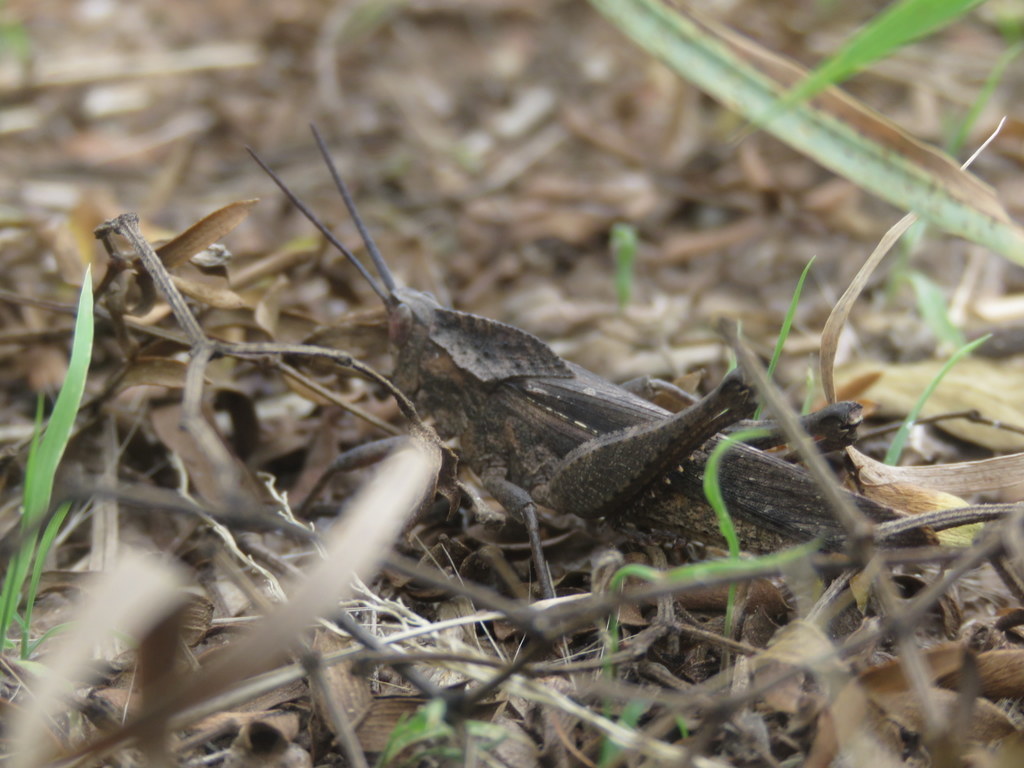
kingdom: Animalia
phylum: Arthropoda
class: Insecta
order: Orthoptera
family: Romaleidae
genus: Xyleus
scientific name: Xyleus insignis
